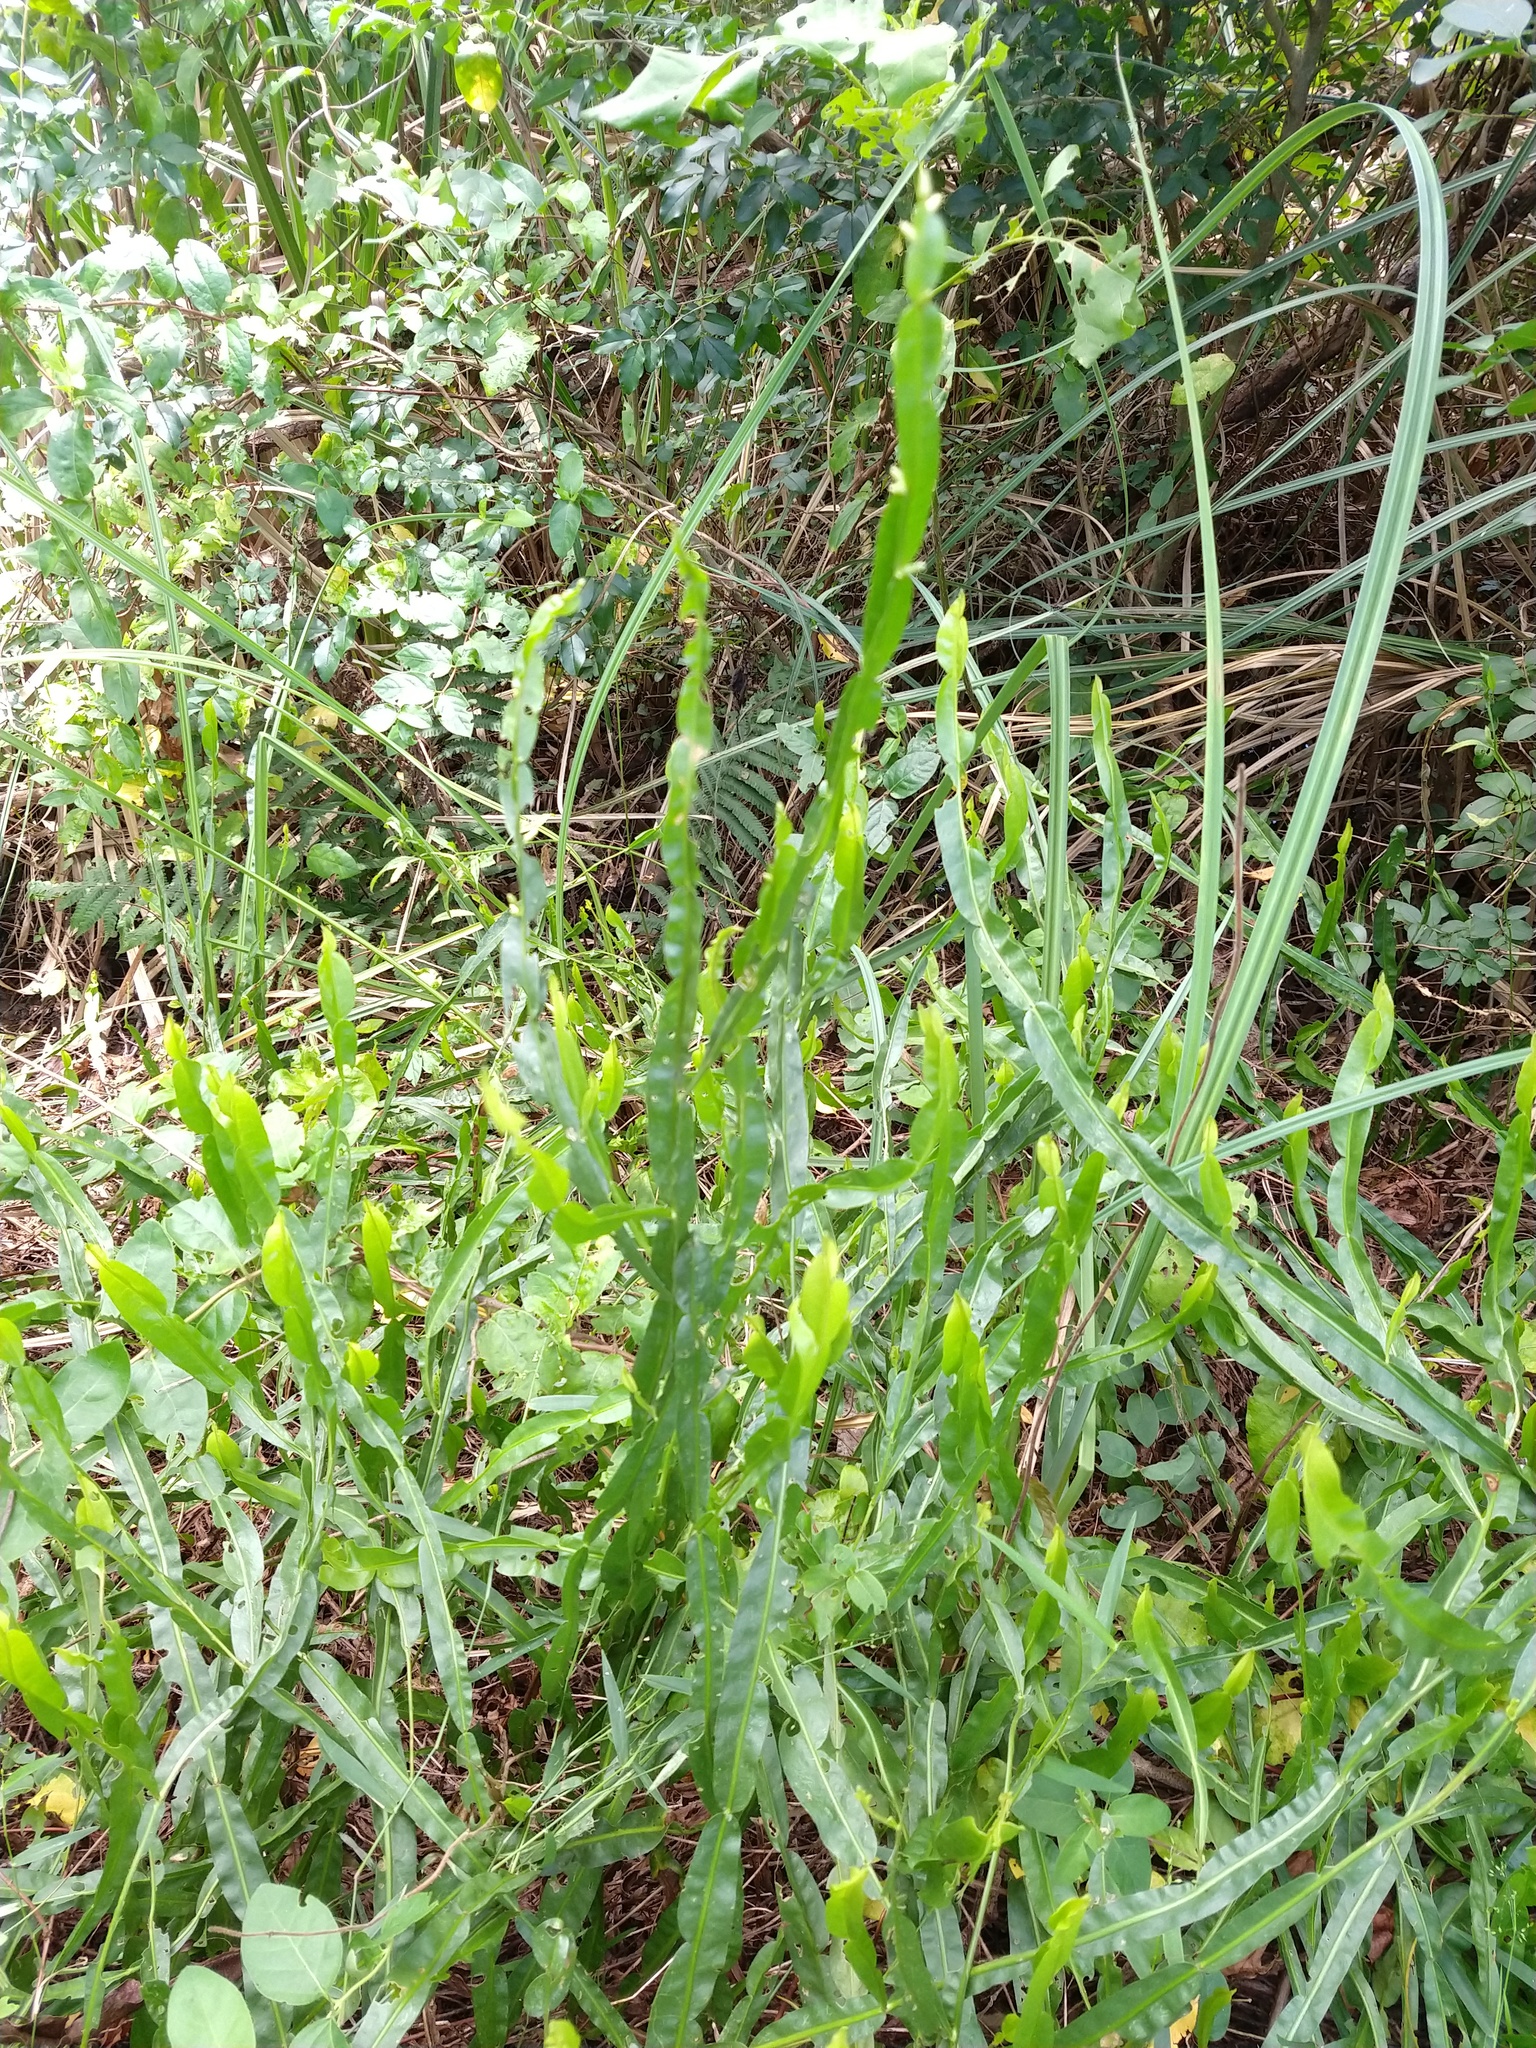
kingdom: Plantae
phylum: Tracheophyta
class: Magnoliopsida
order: Asterales
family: Asteraceae
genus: Baccharis
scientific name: Baccharis trimera
